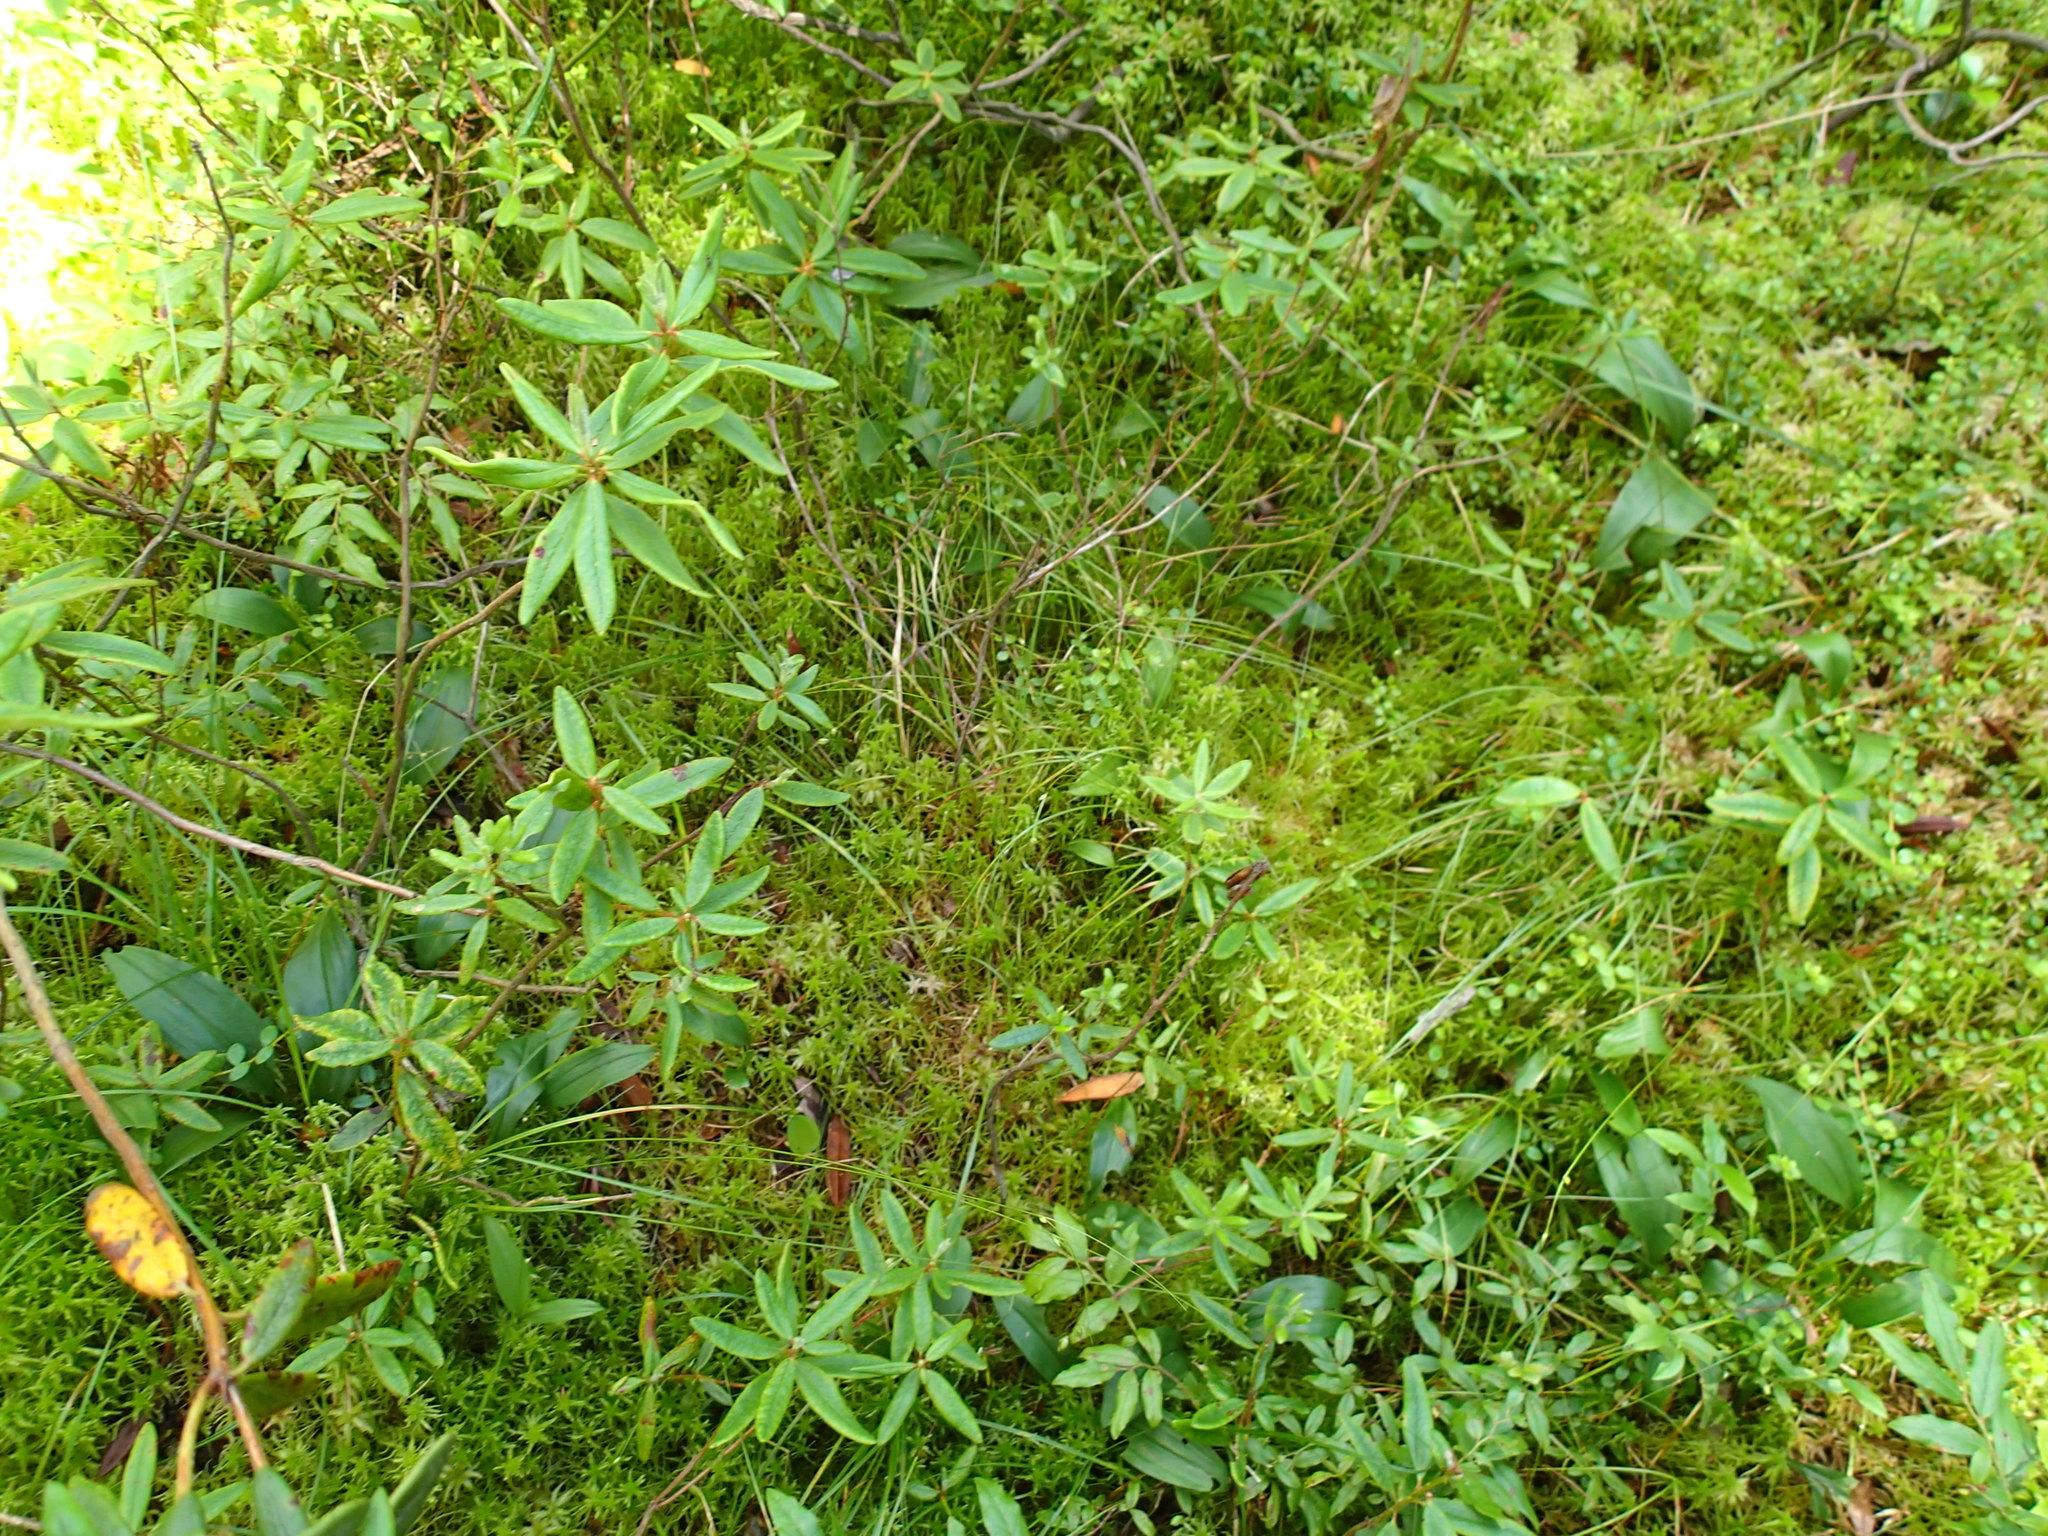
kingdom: Plantae
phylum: Tracheophyta
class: Liliopsida
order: Asparagales
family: Asparagaceae
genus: Maianthemum
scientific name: Maianthemum trifolium
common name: Swamp false solomon's seal
